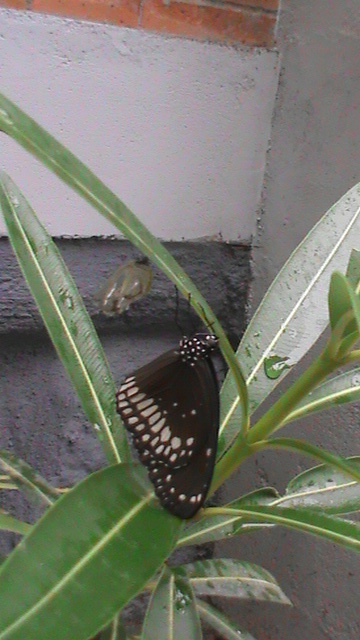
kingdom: Animalia
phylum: Arthropoda
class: Insecta
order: Lepidoptera
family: Nymphalidae
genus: Euploea
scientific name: Euploea core
